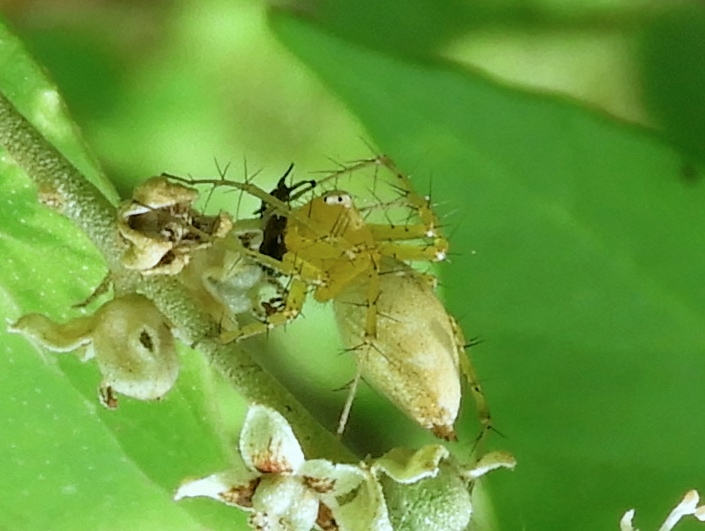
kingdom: Animalia
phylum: Arthropoda
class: Arachnida
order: Araneae
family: Oxyopidae
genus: Oxyopes
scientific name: Oxyopes
